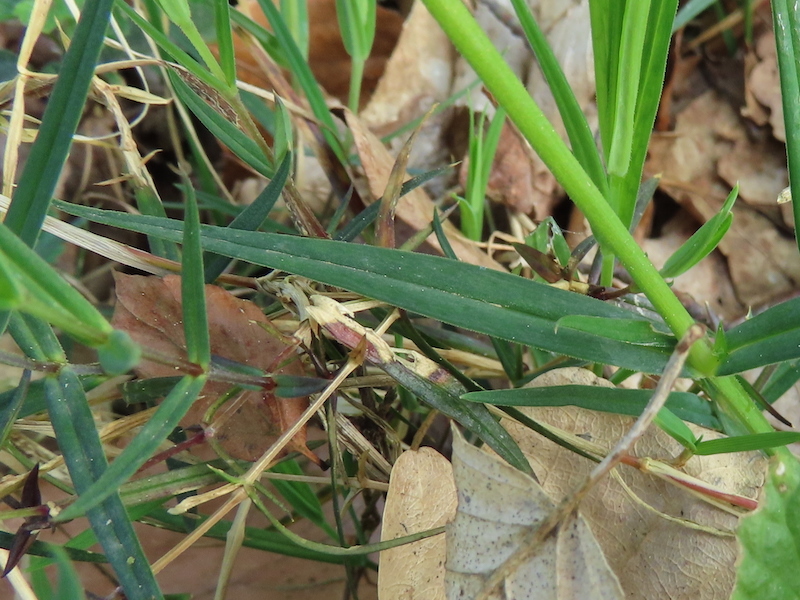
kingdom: Plantae
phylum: Tracheophyta
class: Magnoliopsida
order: Caryophyllales
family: Caryophyllaceae
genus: Rabelera
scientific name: Rabelera holostea
